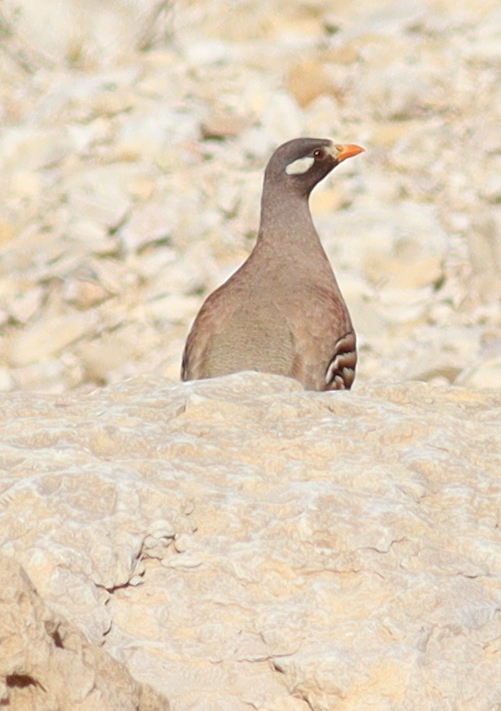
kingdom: Animalia
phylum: Chordata
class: Aves
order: Galliformes
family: Phasianidae
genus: Ammoperdix
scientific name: Ammoperdix heyi
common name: Sand partridge
